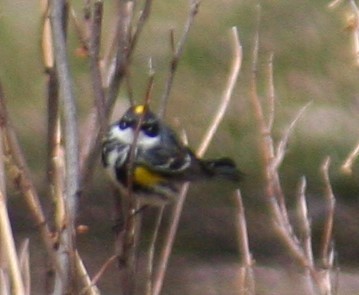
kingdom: Animalia
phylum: Chordata
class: Aves
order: Passeriformes
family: Parulidae
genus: Setophaga
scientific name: Setophaga coronata
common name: Myrtle warbler
